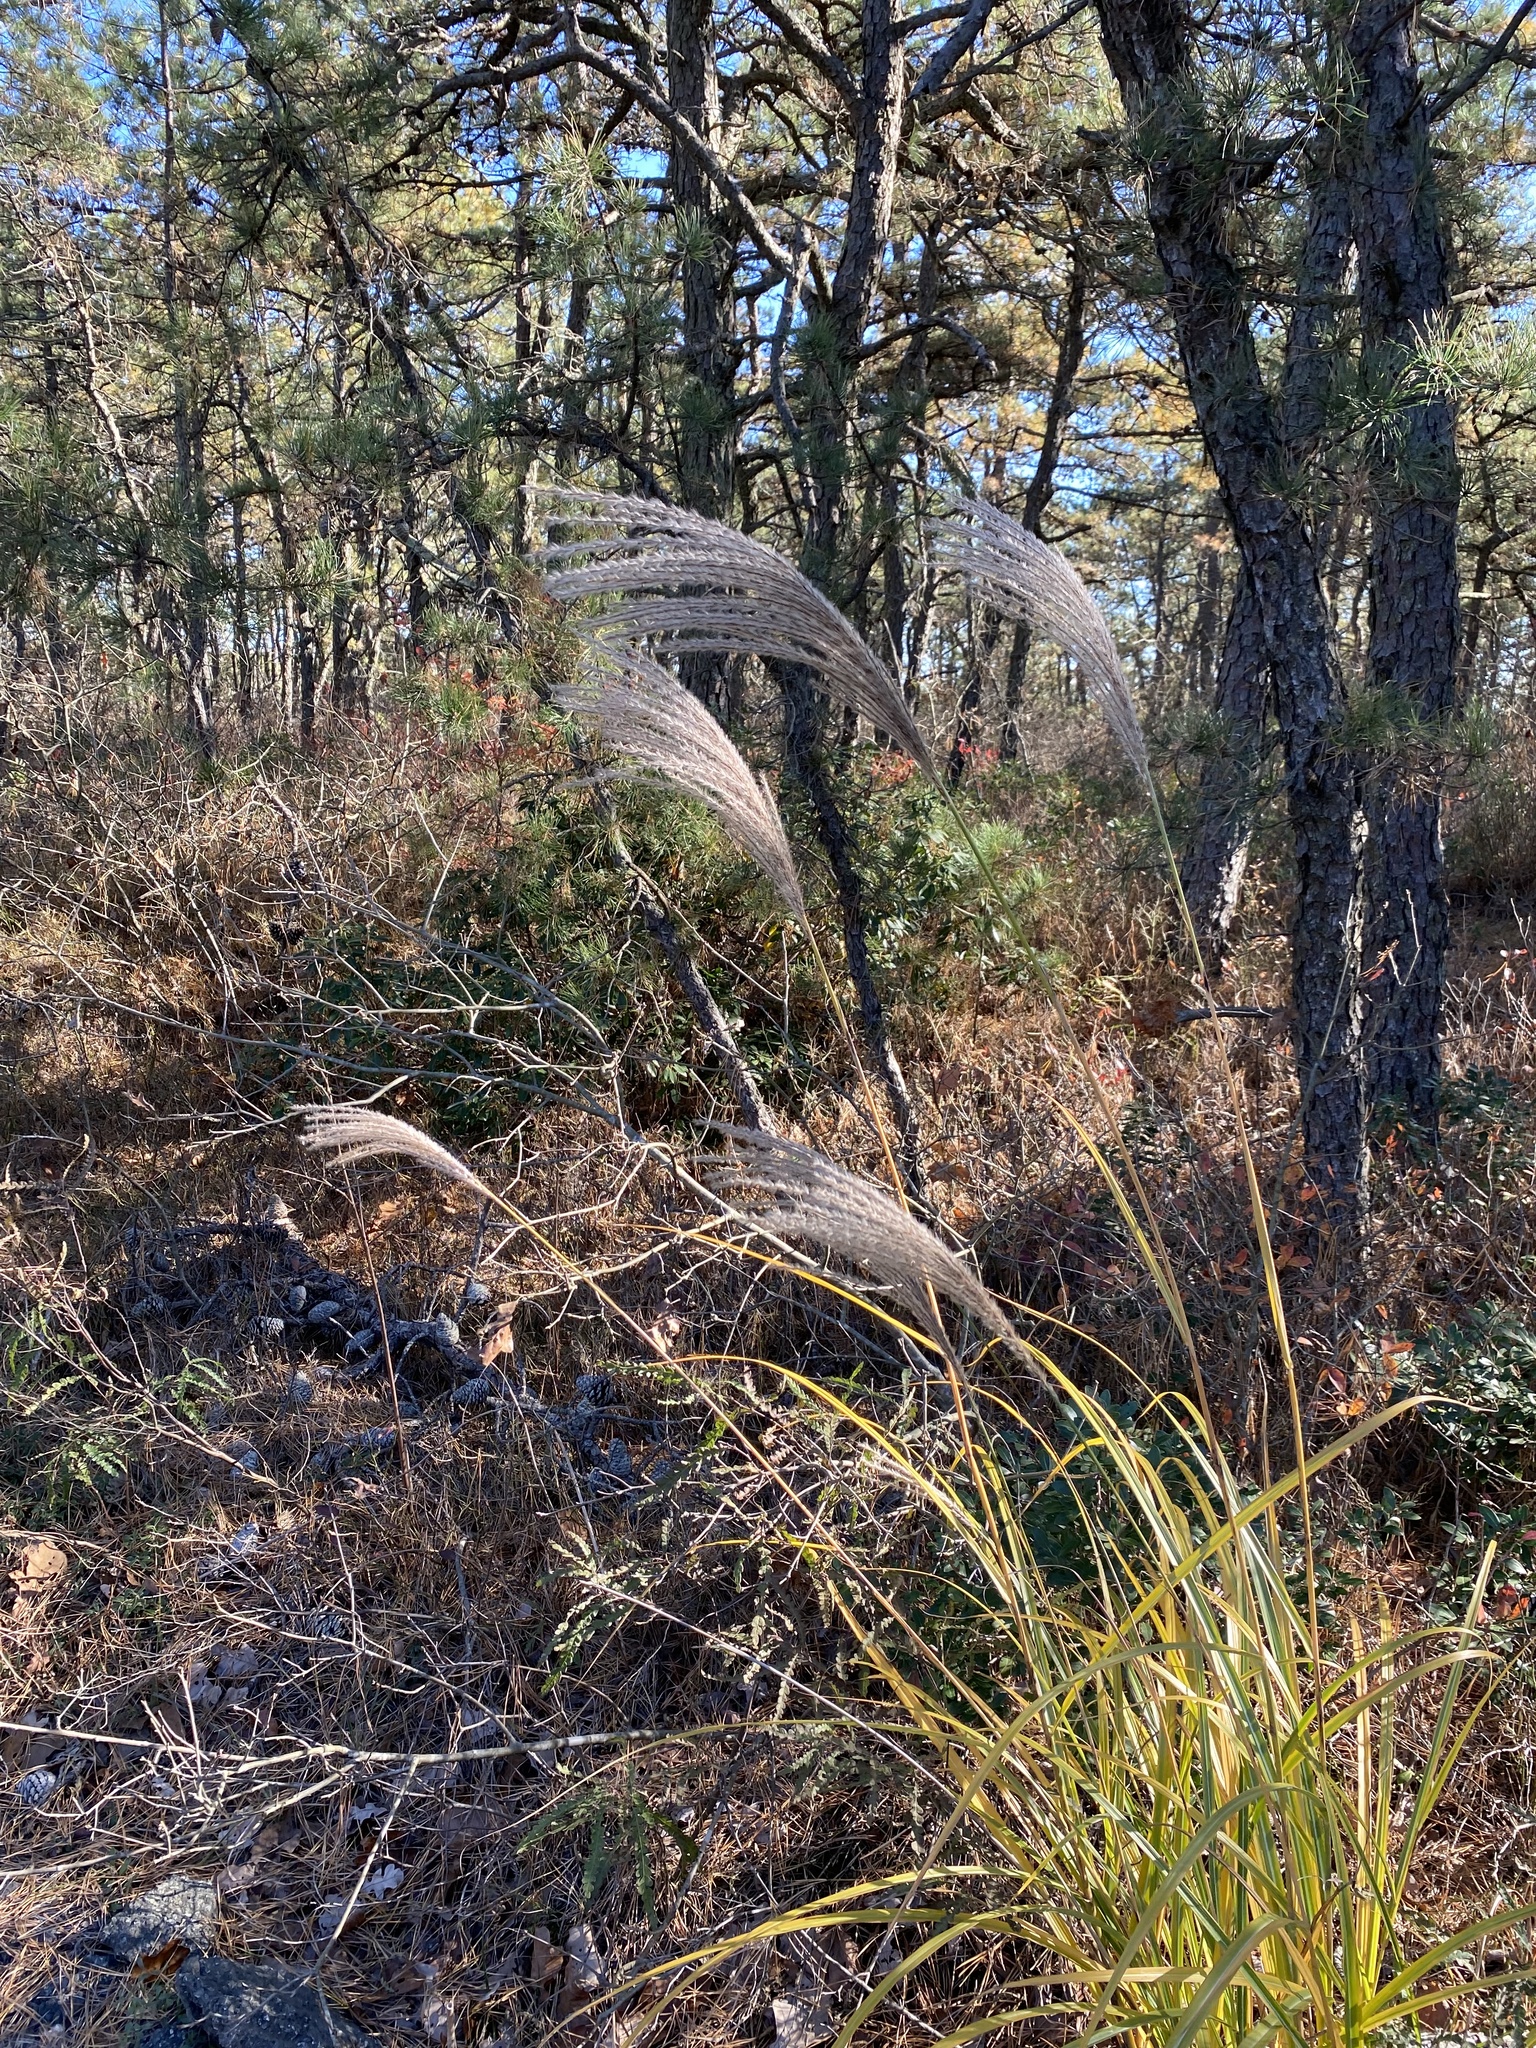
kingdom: Plantae
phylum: Tracheophyta
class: Liliopsida
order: Poales
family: Poaceae
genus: Miscanthus
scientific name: Miscanthus sinensis
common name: Chinese silvergrass
